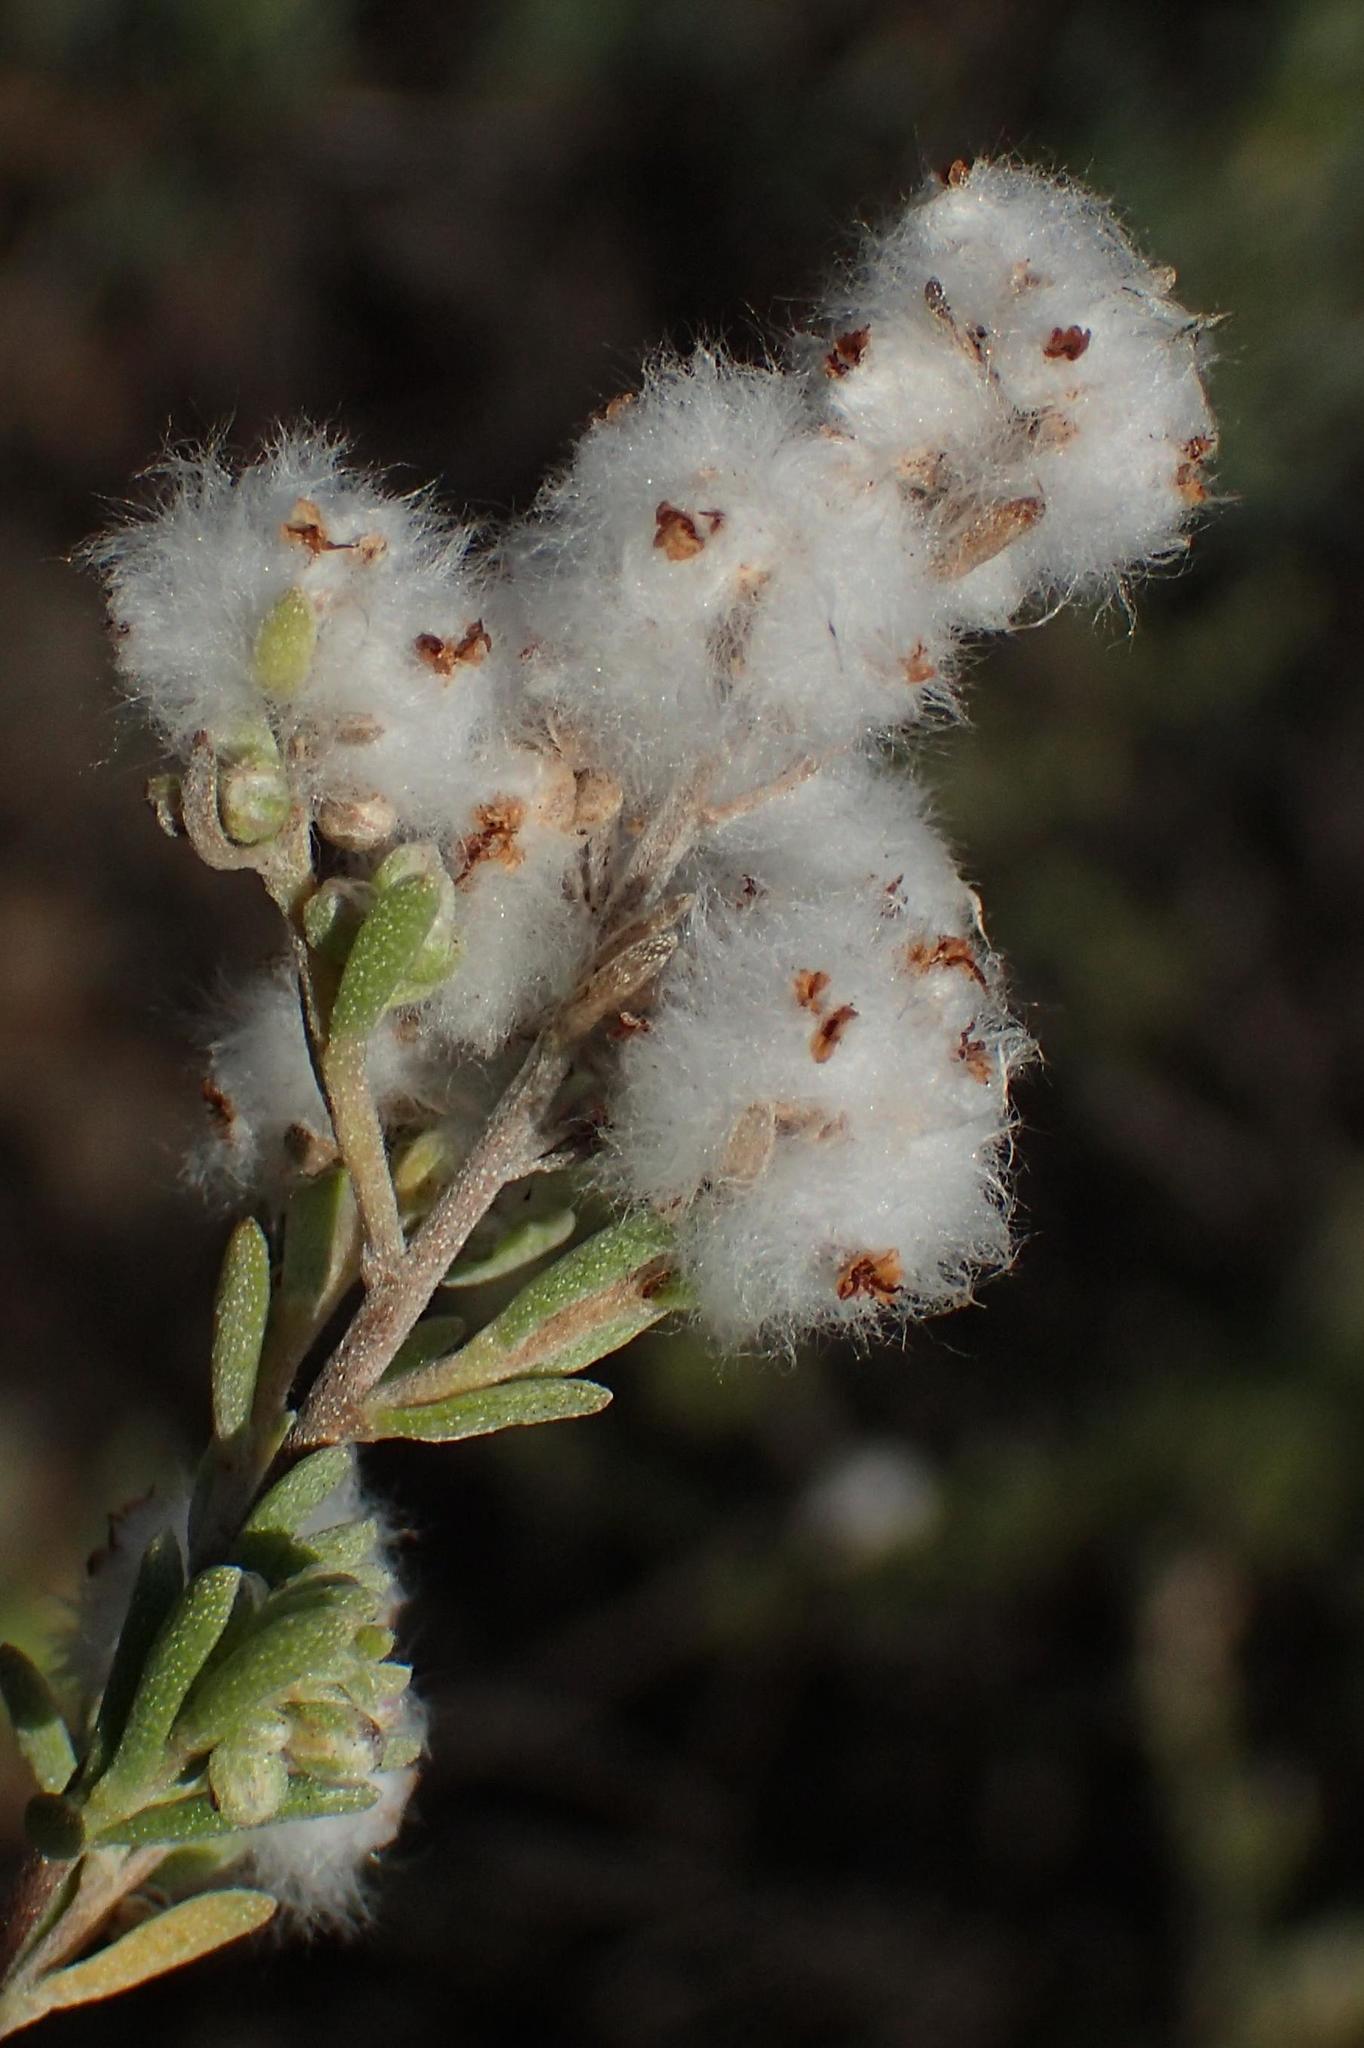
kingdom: Plantae
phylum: Tracheophyta
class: Magnoliopsida
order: Asterales
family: Asteraceae
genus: Eriocephalus
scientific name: Eriocephalus capitellatus
